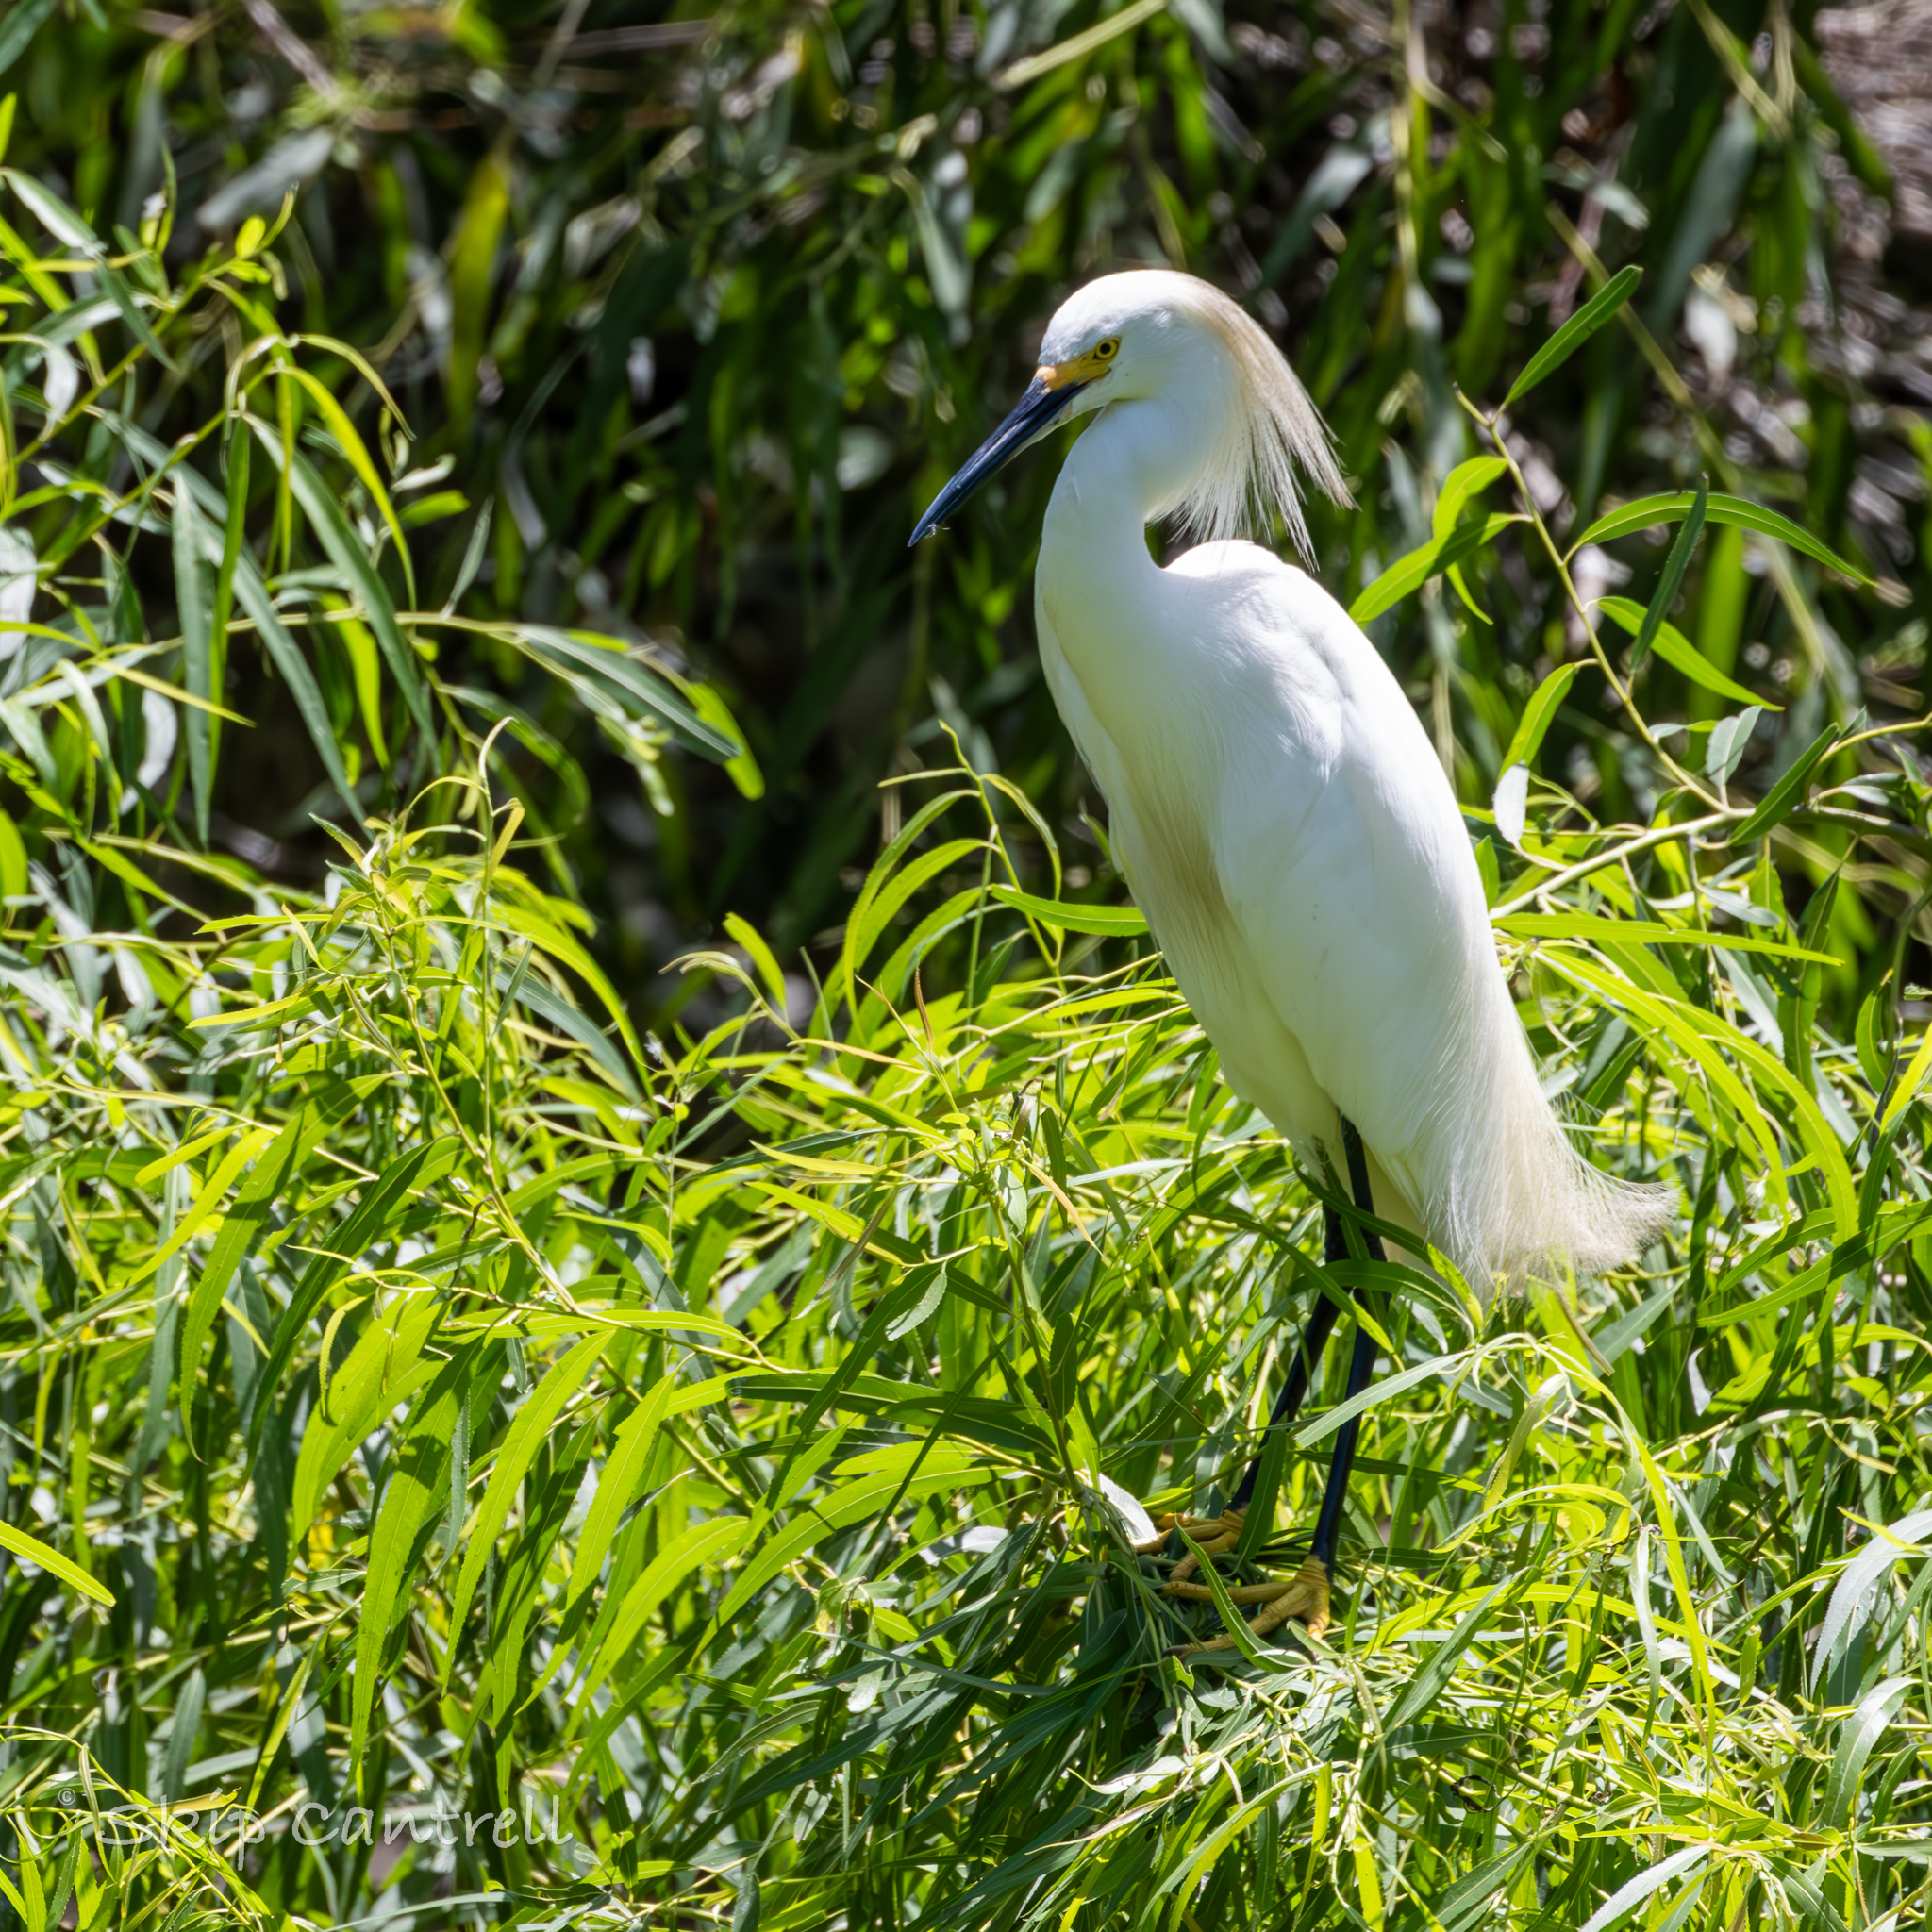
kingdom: Animalia
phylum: Chordata
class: Aves
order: Pelecaniformes
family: Ardeidae
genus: Egretta
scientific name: Egretta thula
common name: Snowy egret
